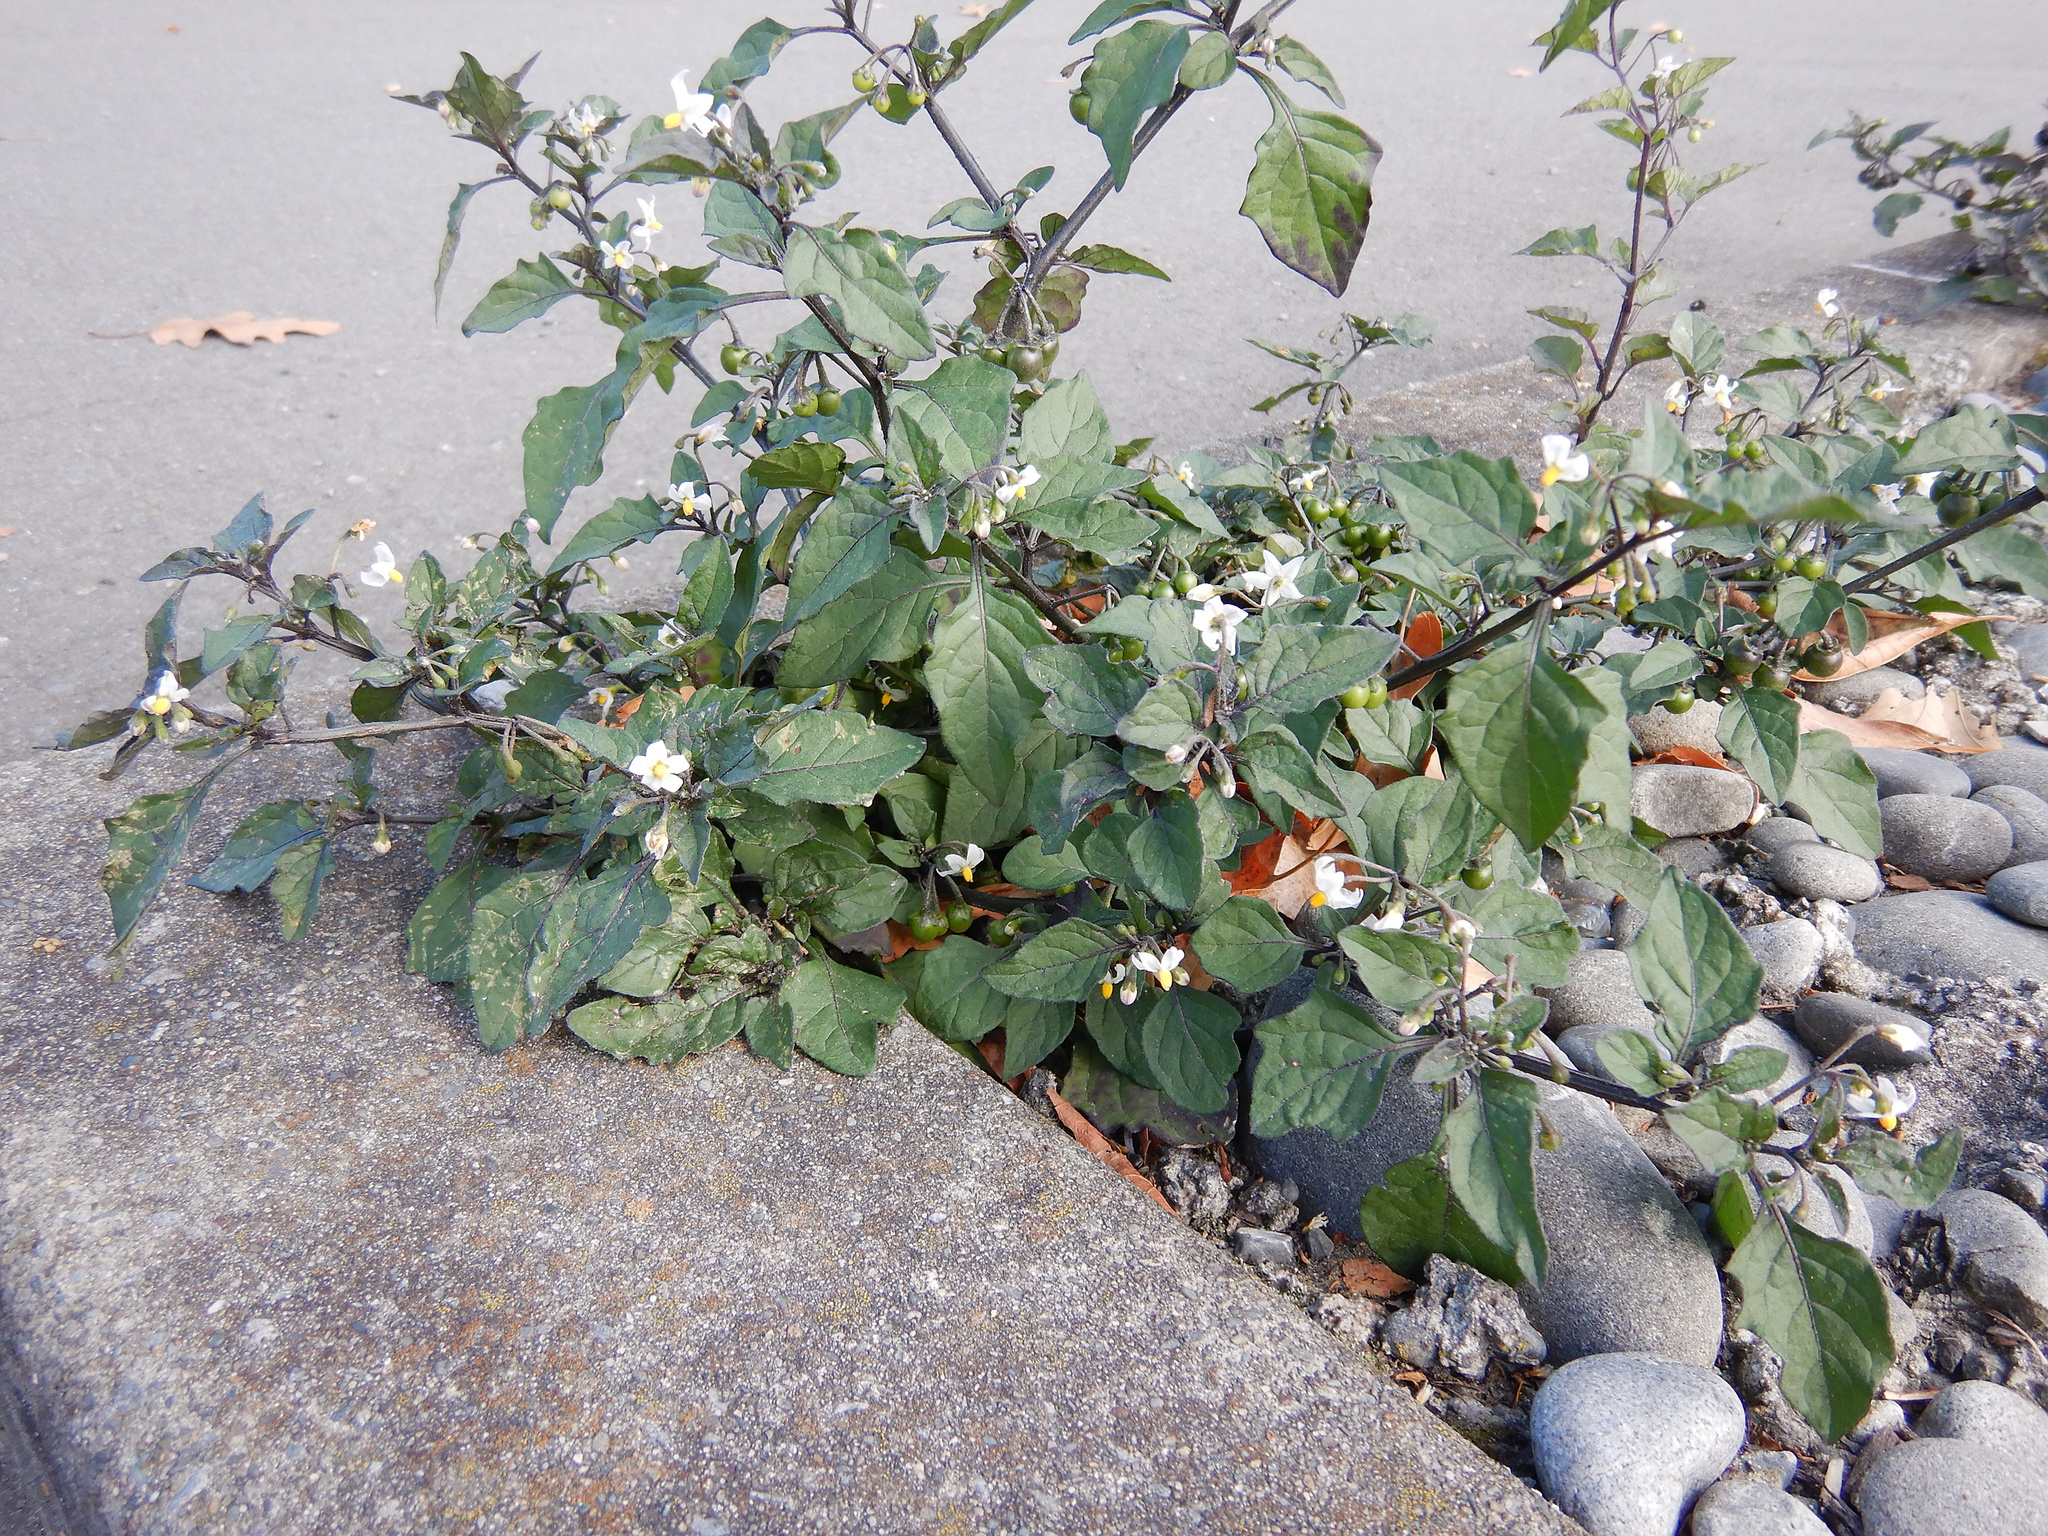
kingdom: Plantae
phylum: Tracheophyta
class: Magnoliopsida
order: Solanales
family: Solanaceae
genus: Solanum
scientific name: Solanum nigrum
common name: Black nightshade
